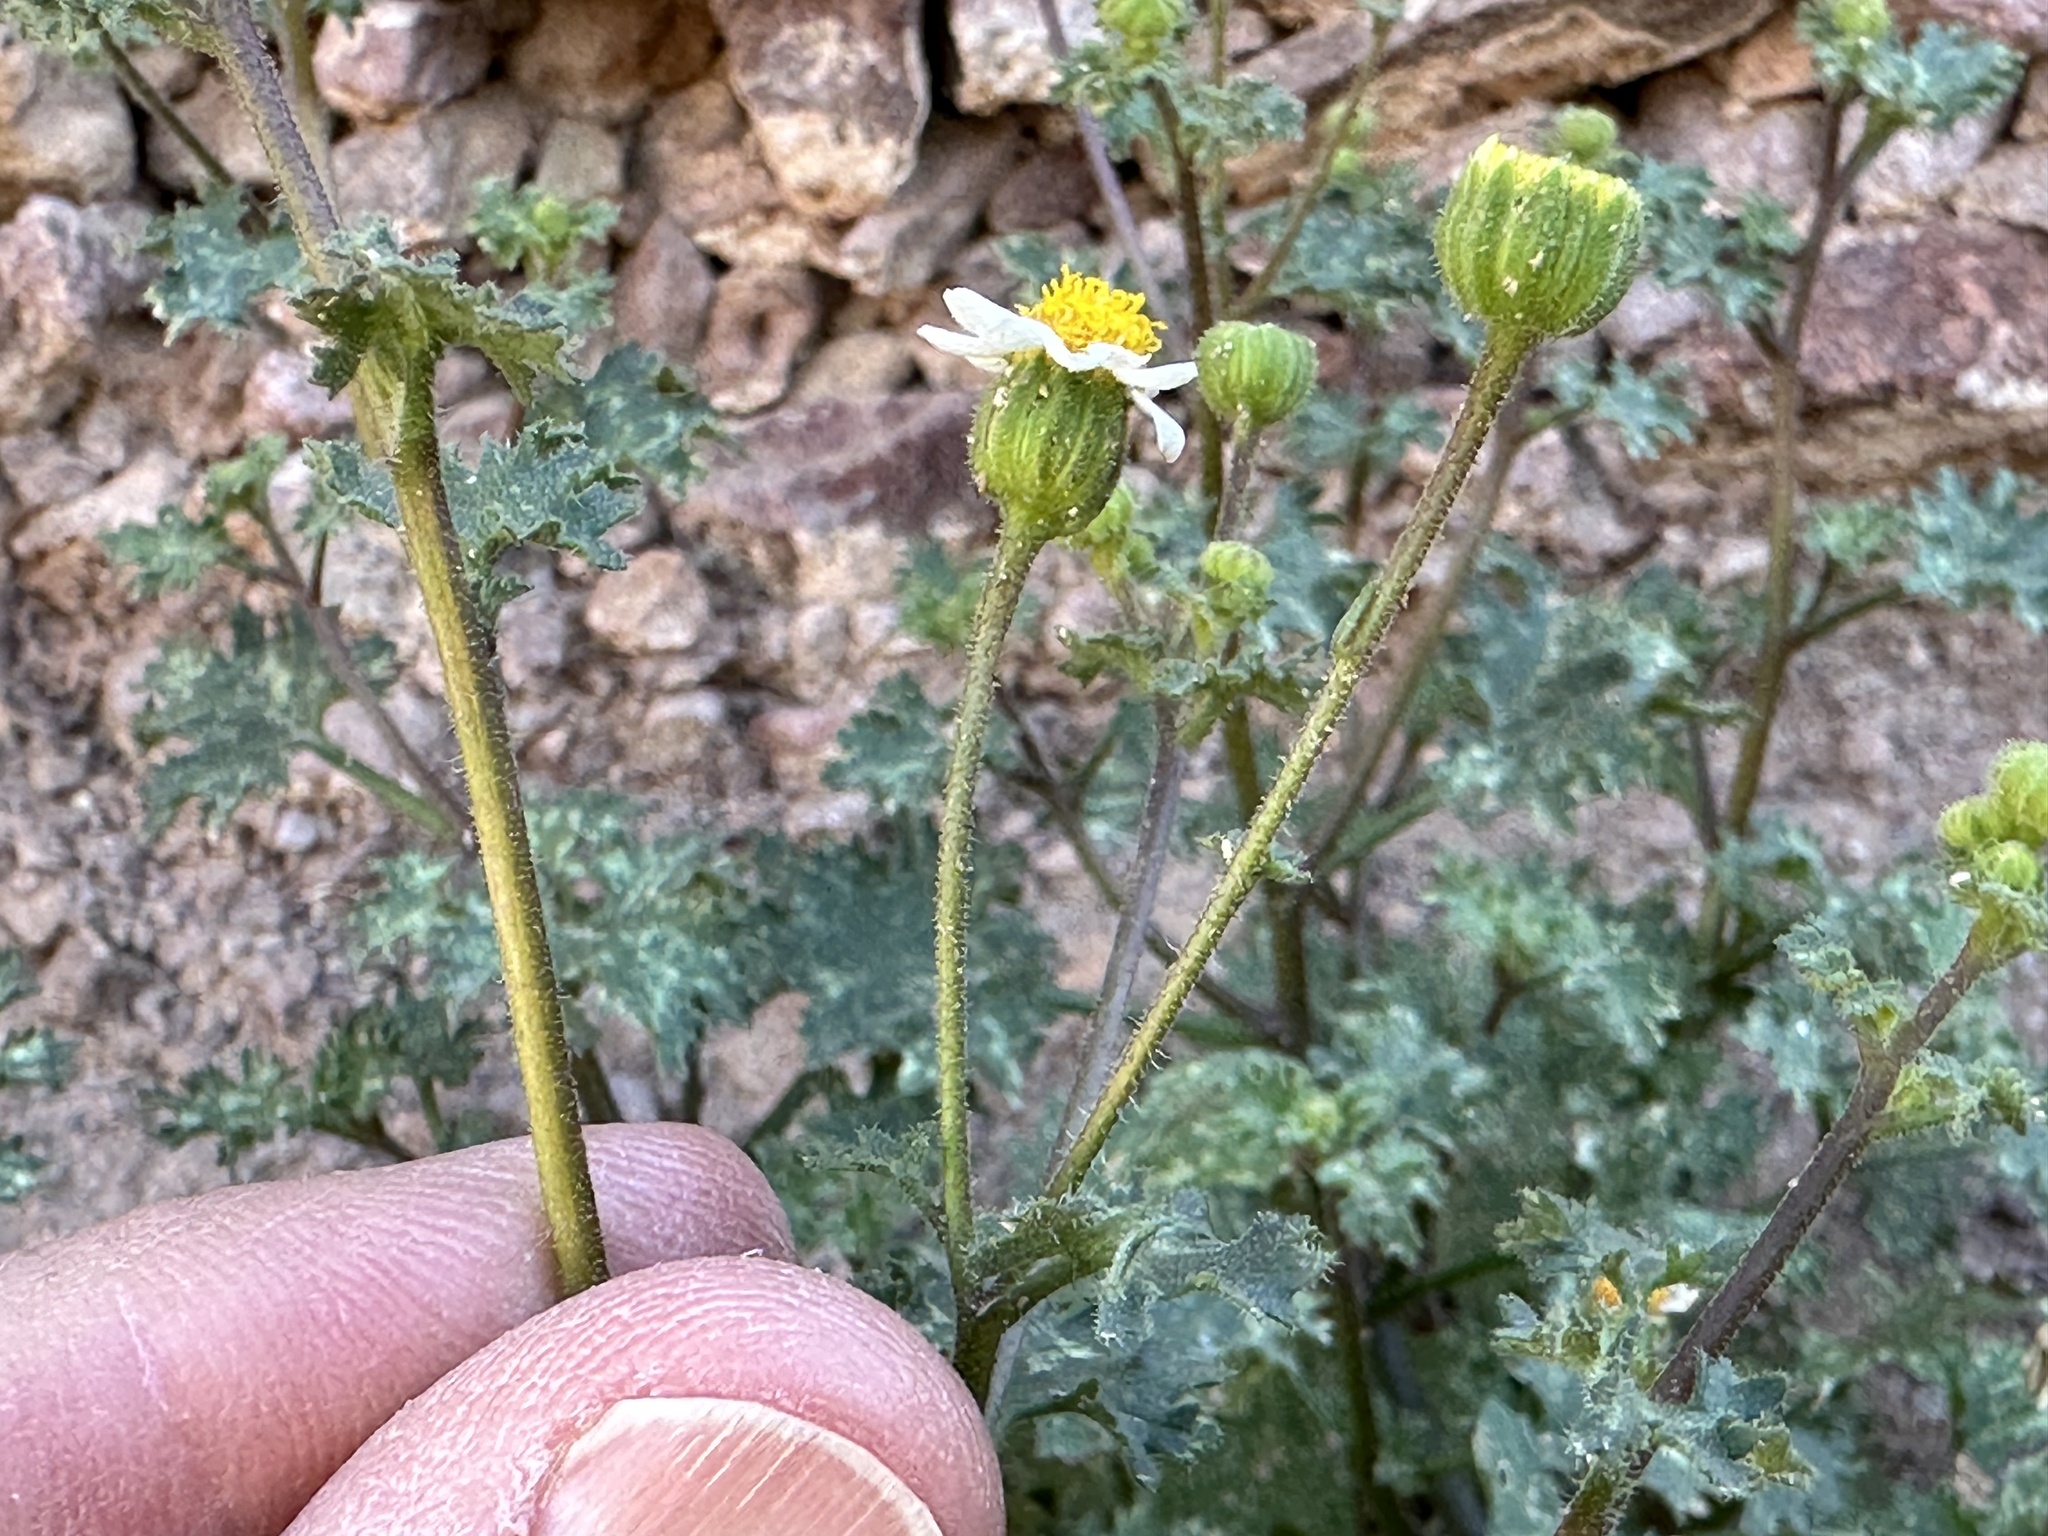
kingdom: Plantae
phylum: Tracheophyta
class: Magnoliopsida
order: Asterales
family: Asteraceae
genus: Laphamia
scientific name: Laphamia emoryi
